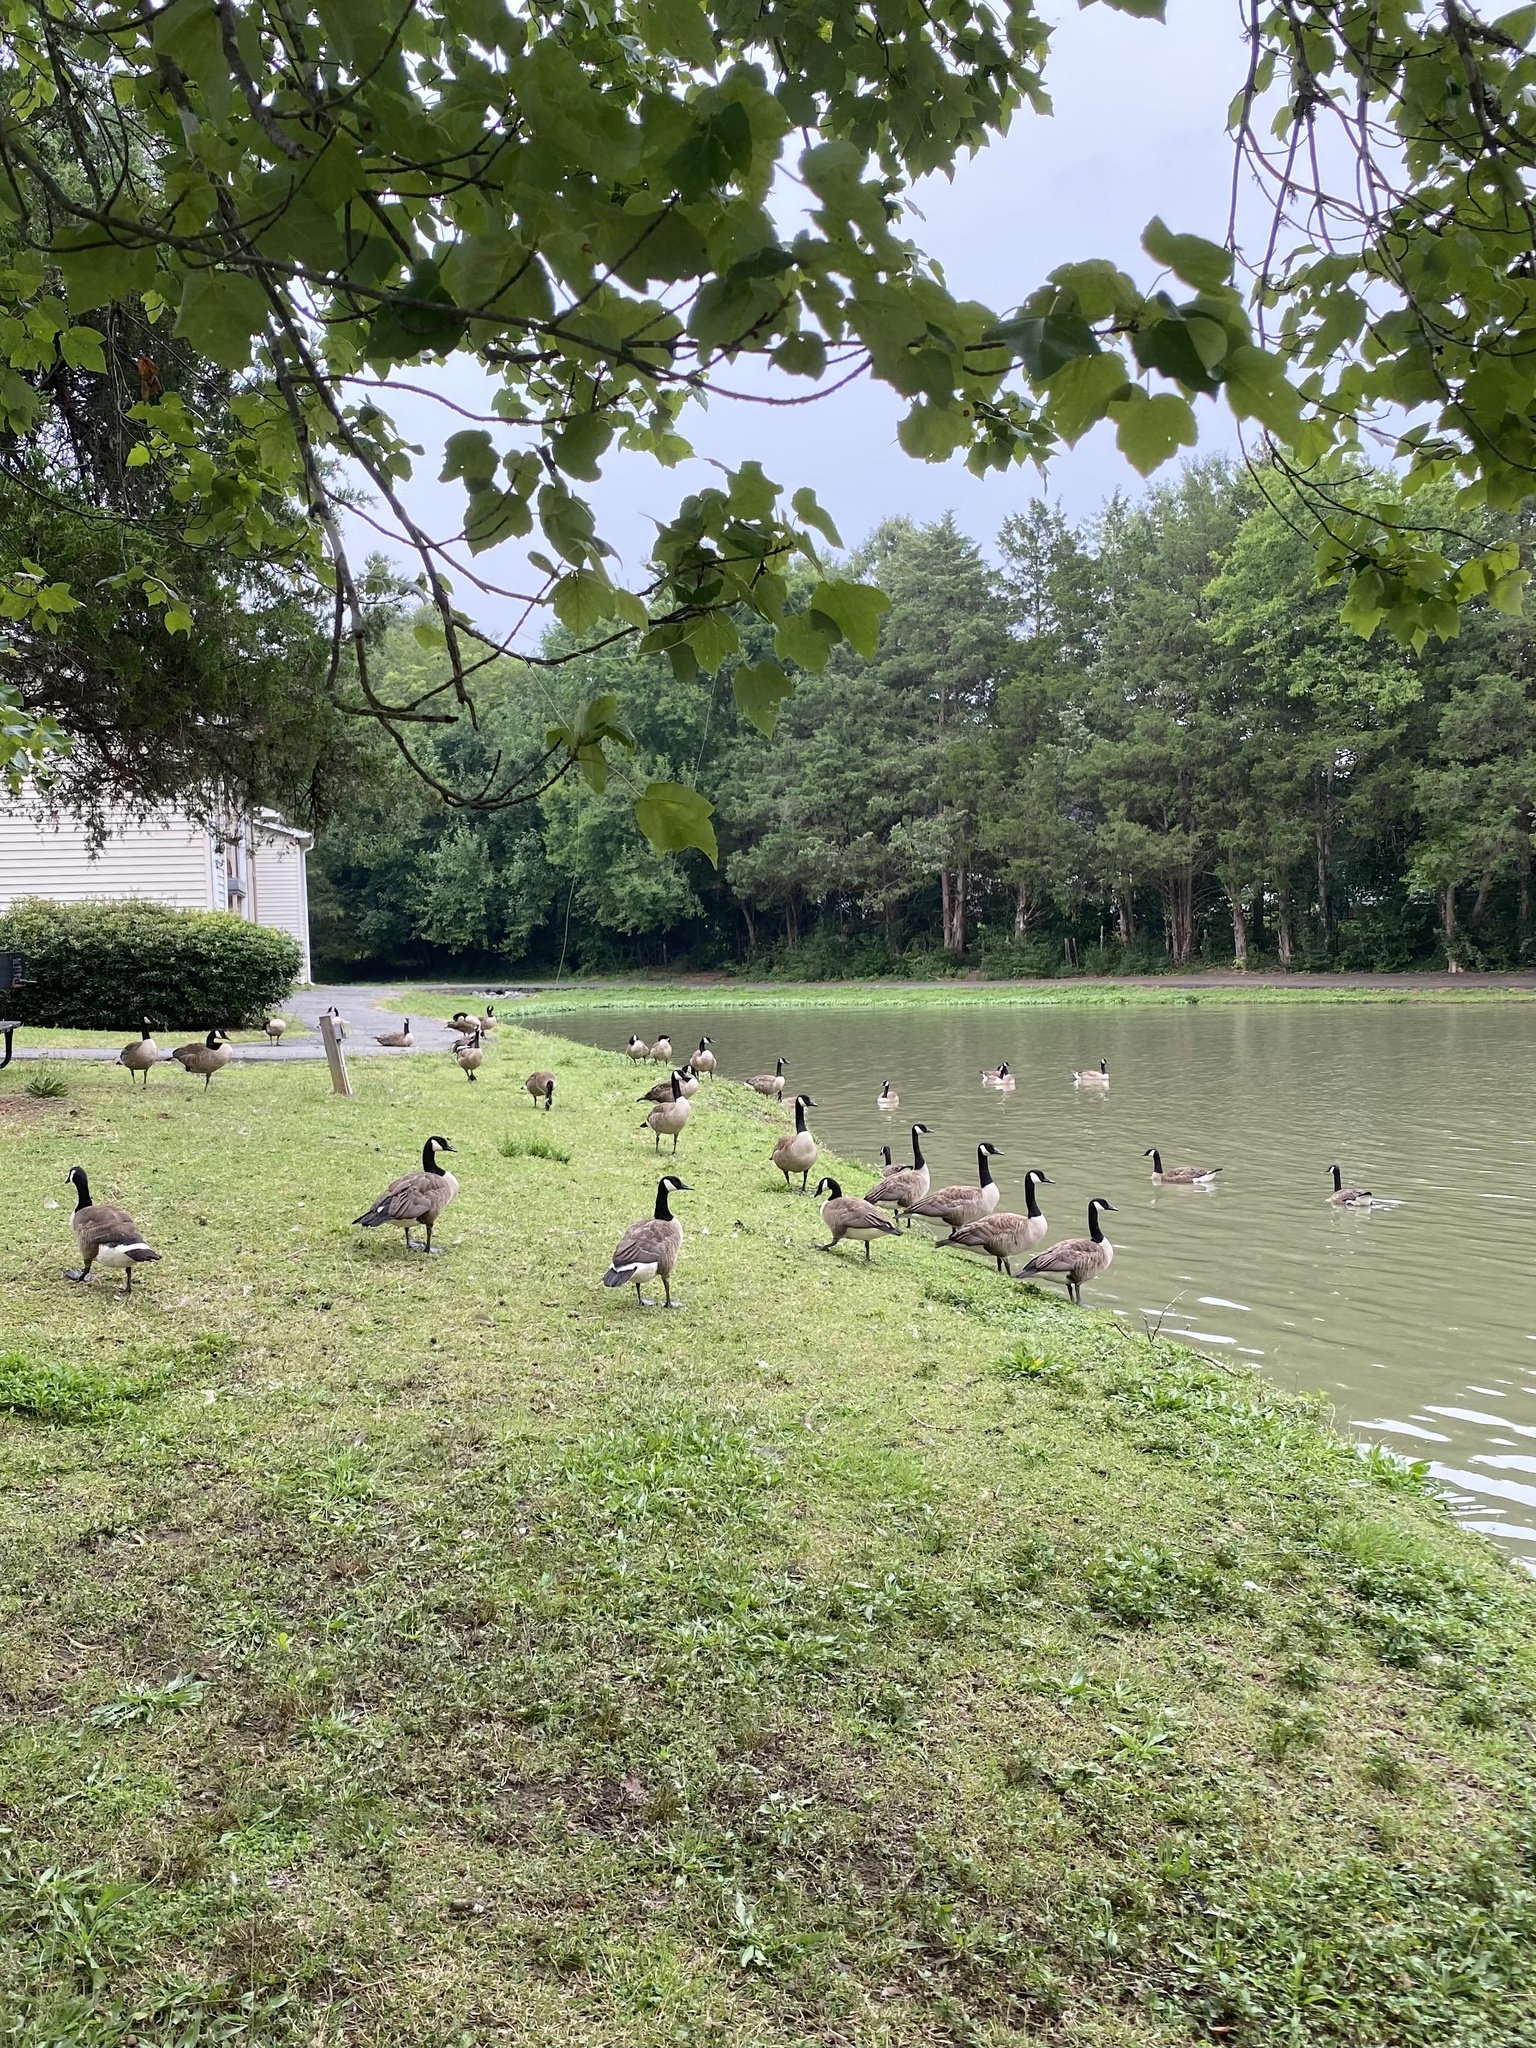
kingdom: Animalia
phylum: Chordata
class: Aves
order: Anseriformes
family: Anatidae
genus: Branta
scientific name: Branta canadensis
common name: Canada goose
